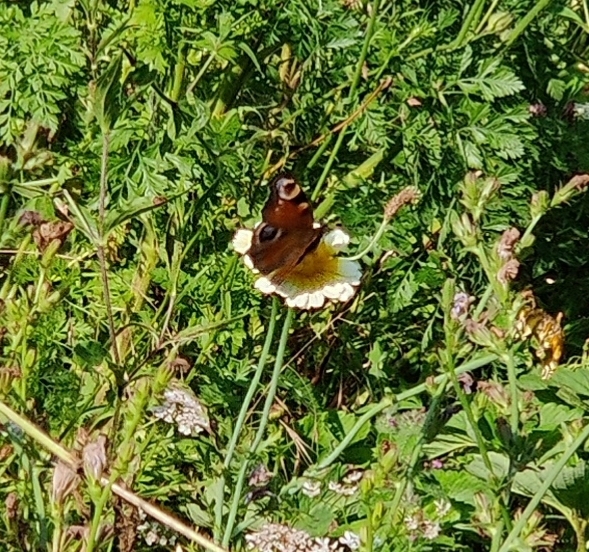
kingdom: Animalia
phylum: Arthropoda
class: Insecta
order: Lepidoptera
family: Nymphalidae
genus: Aglais
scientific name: Aglais io
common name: Peacock
